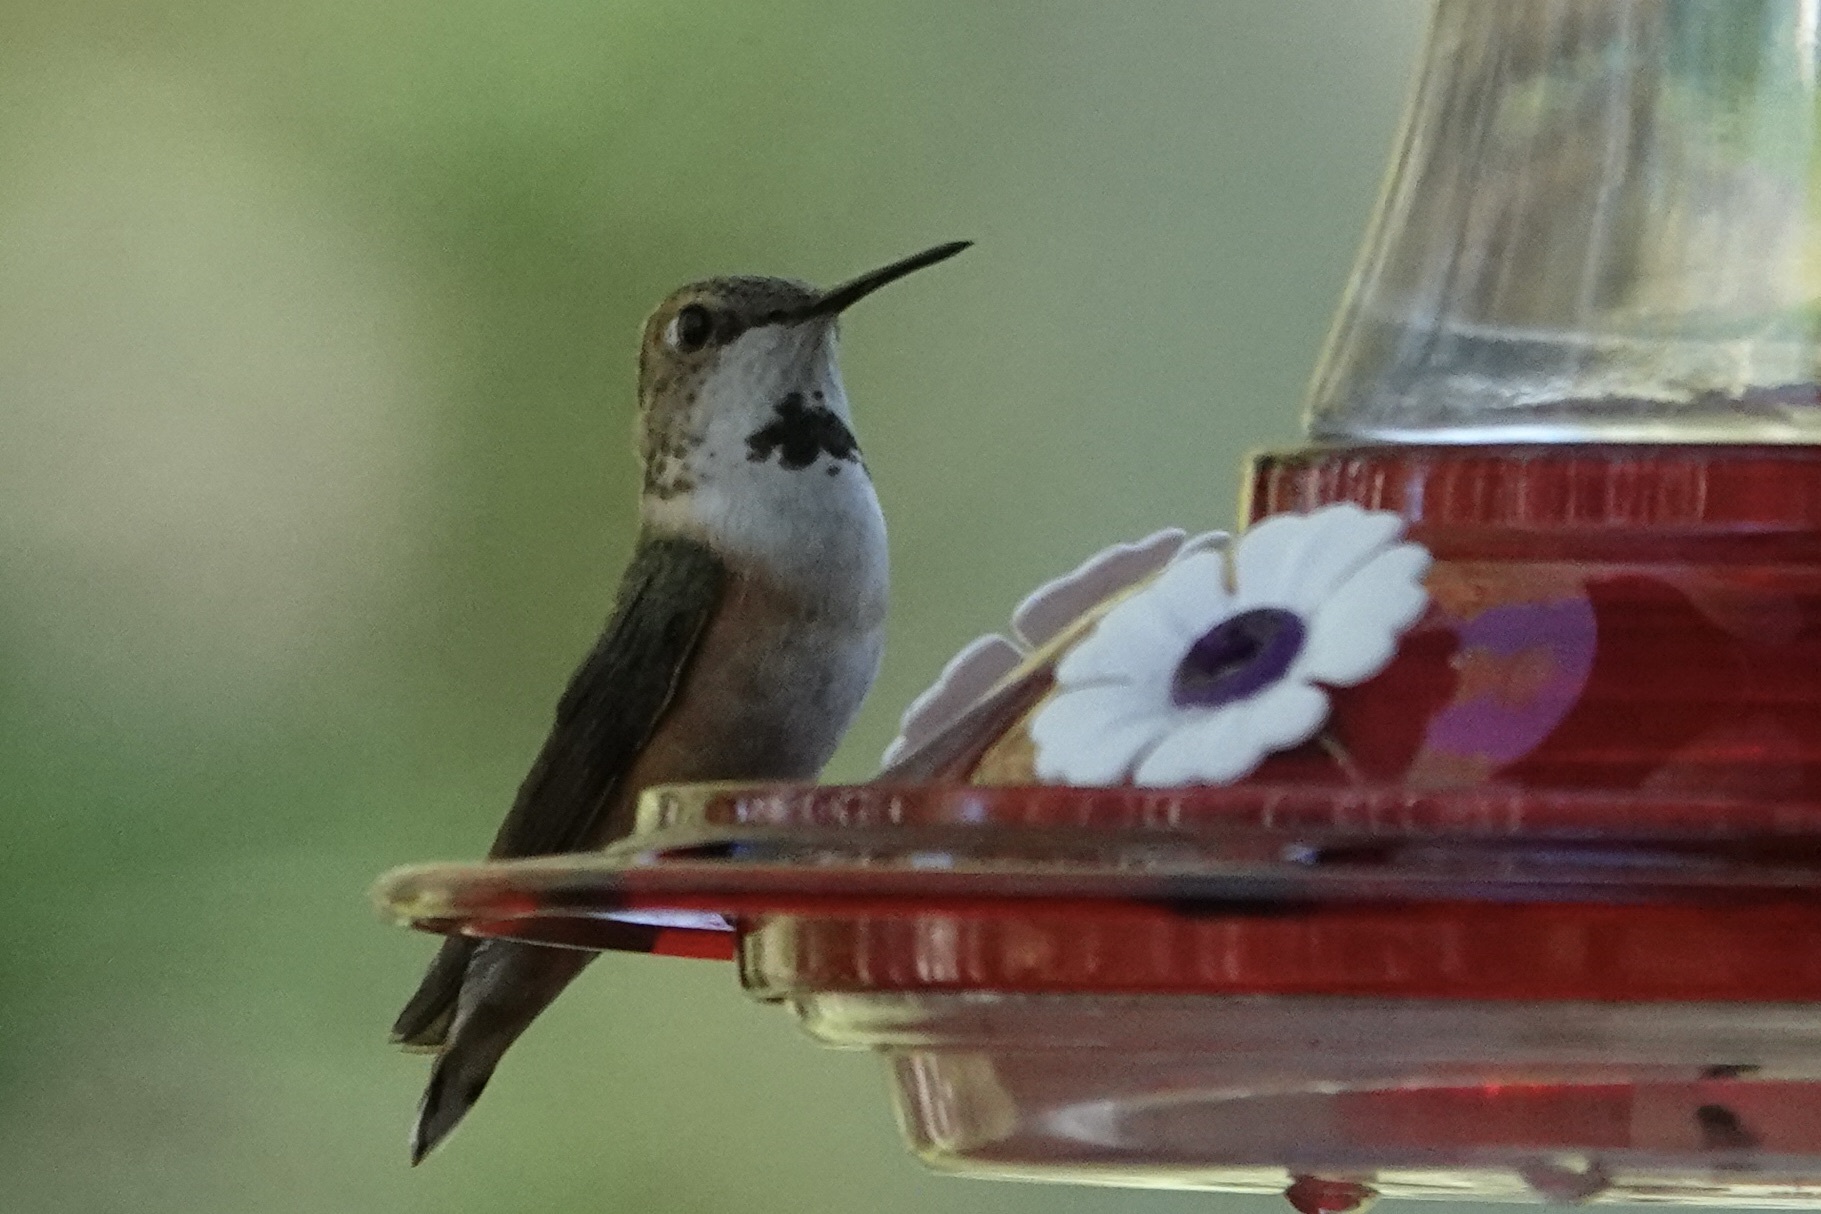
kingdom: Animalia
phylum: Chordata
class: Aves
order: Apodiformes
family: Trochilidae
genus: Selasphorus
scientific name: Selasphorus rufus
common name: Rufous hummingbird
